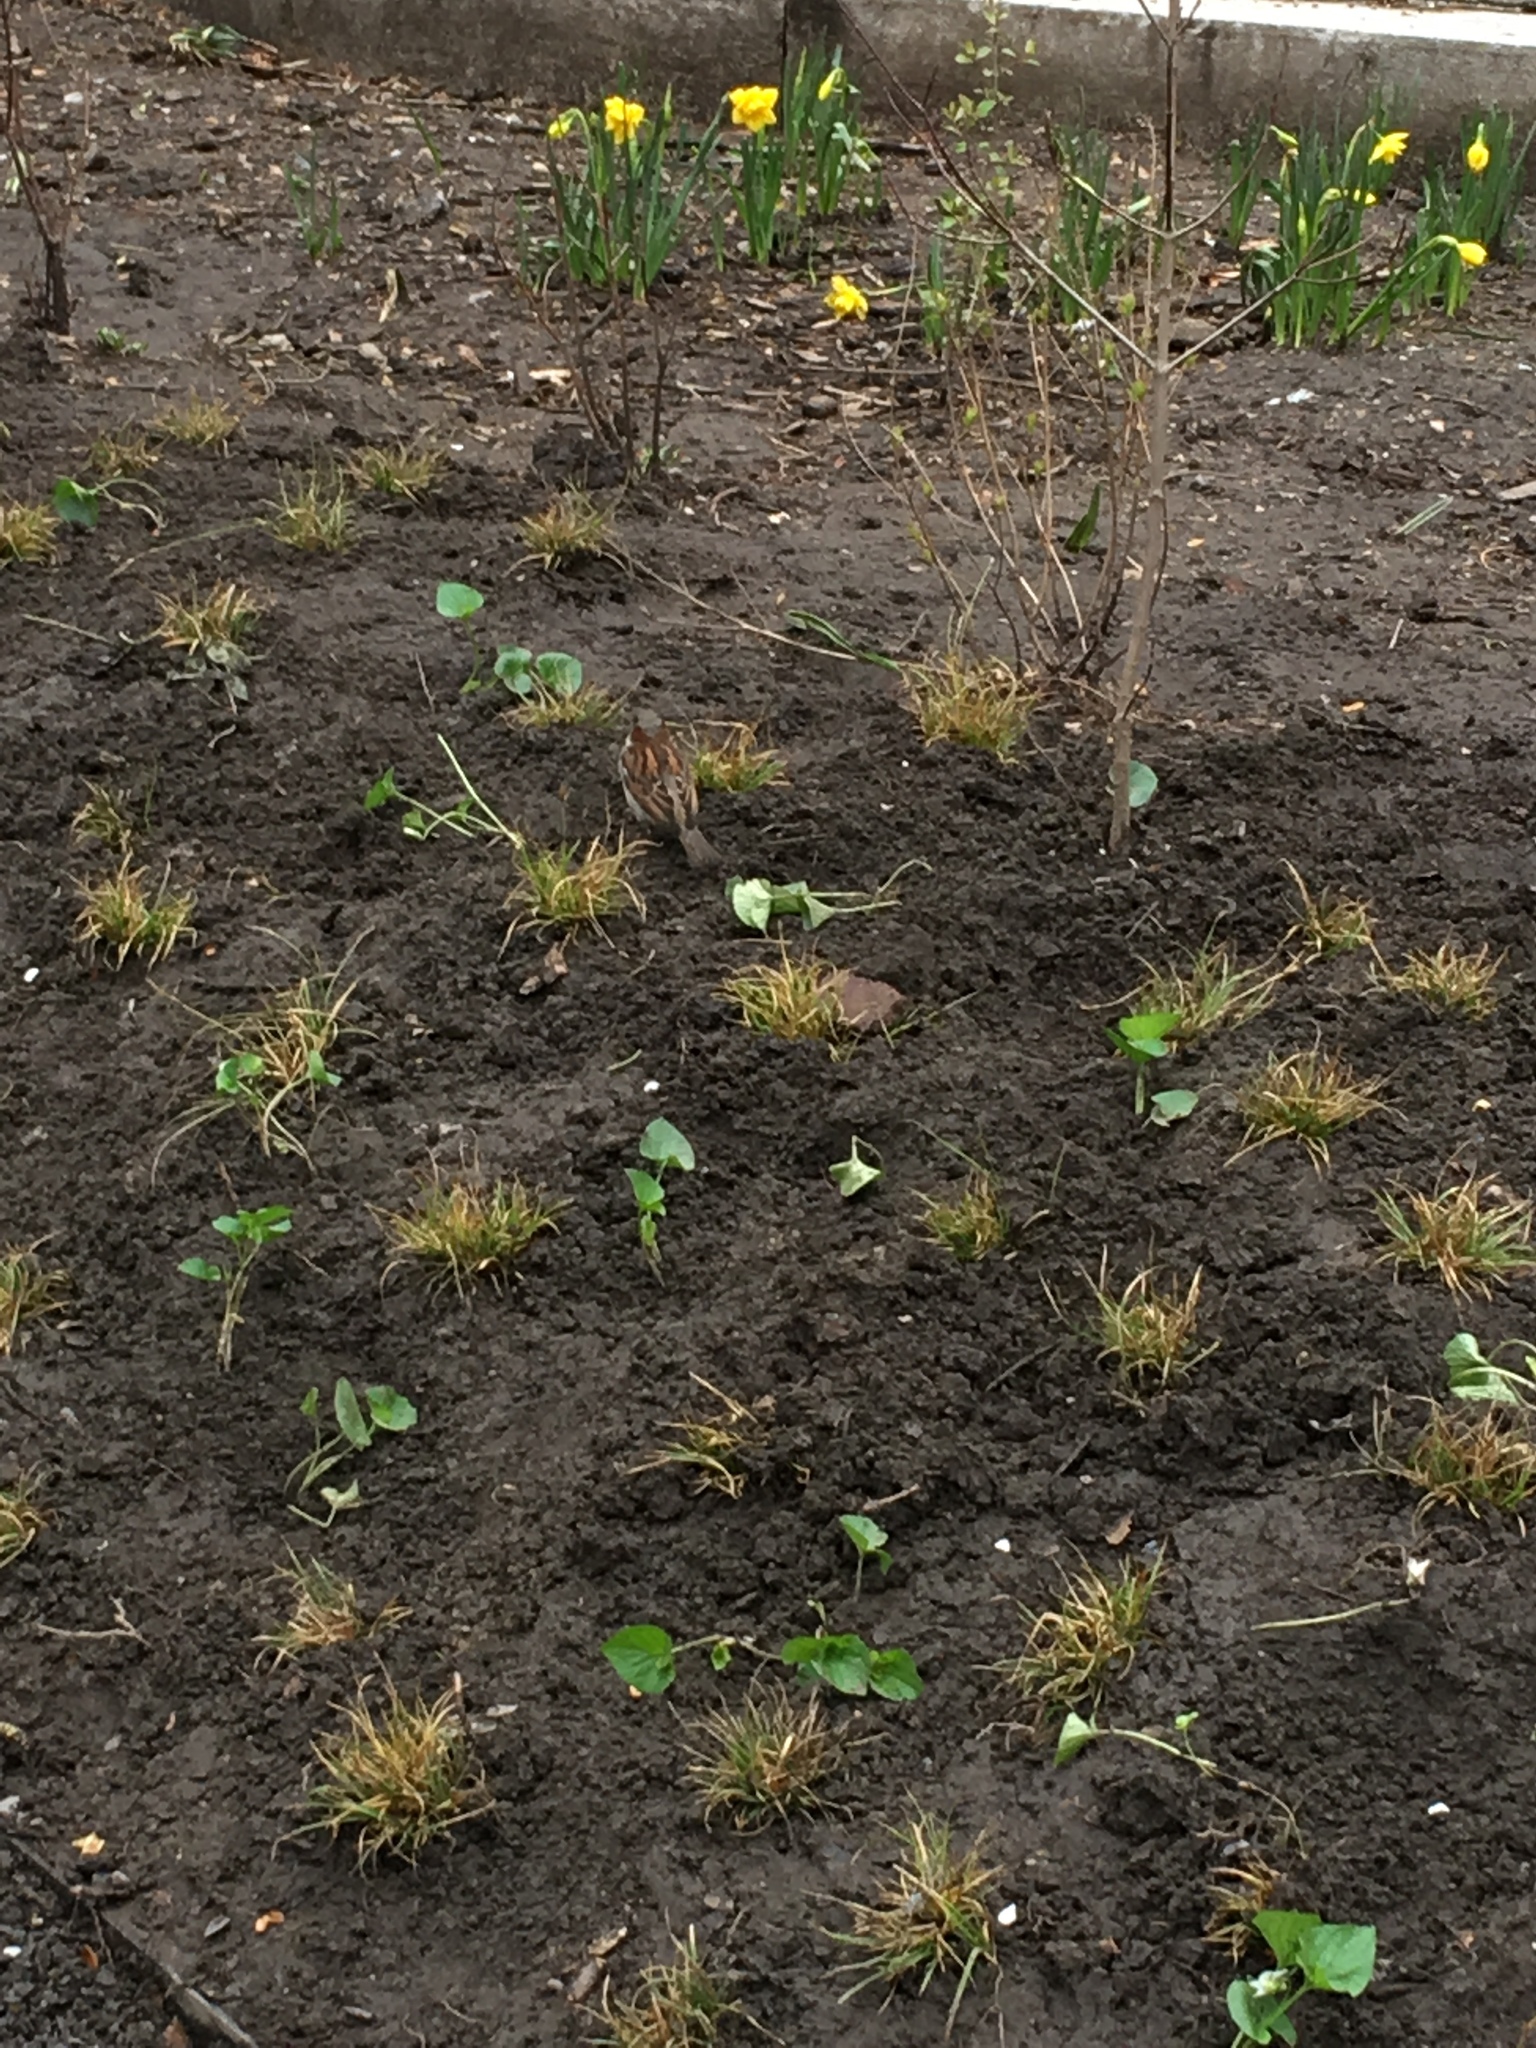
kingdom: Animalia
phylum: Chordata
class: Aves
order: Passeriformes
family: Passeridae
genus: Passer
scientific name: Passer domesticus
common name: House sparrow
